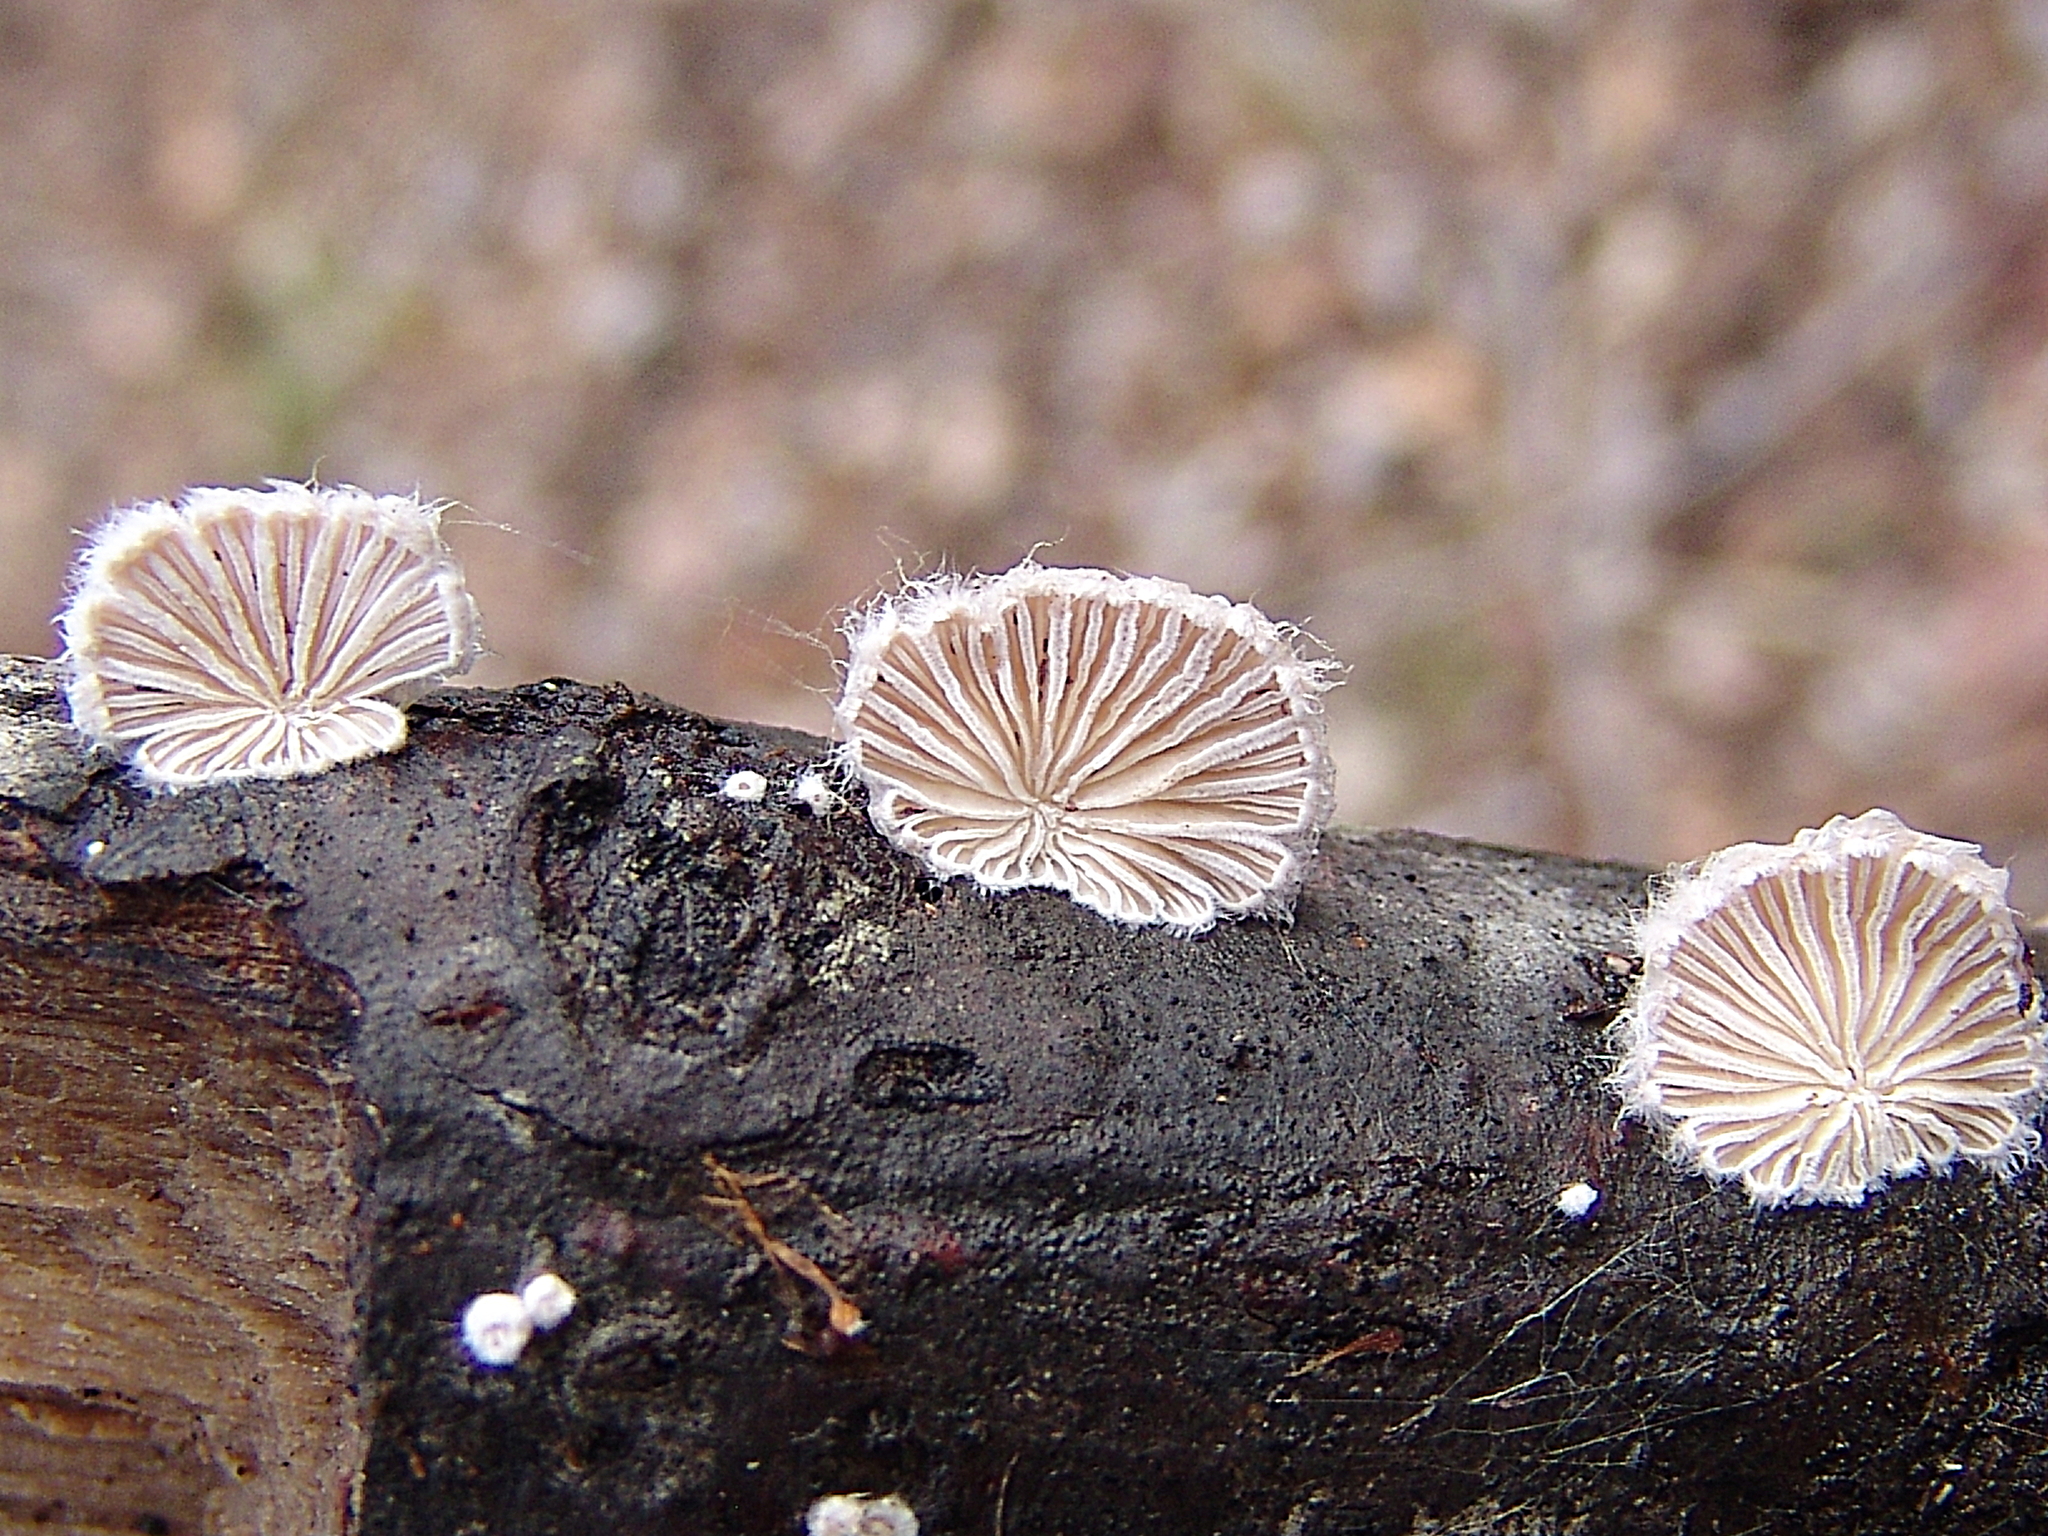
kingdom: Fungi
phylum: Basidiomycota
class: Agaricomycetes
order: Agaricales
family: Schizophyllaceae
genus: Schizophyllum
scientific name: Schizophyllum commune
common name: Common porecrust
